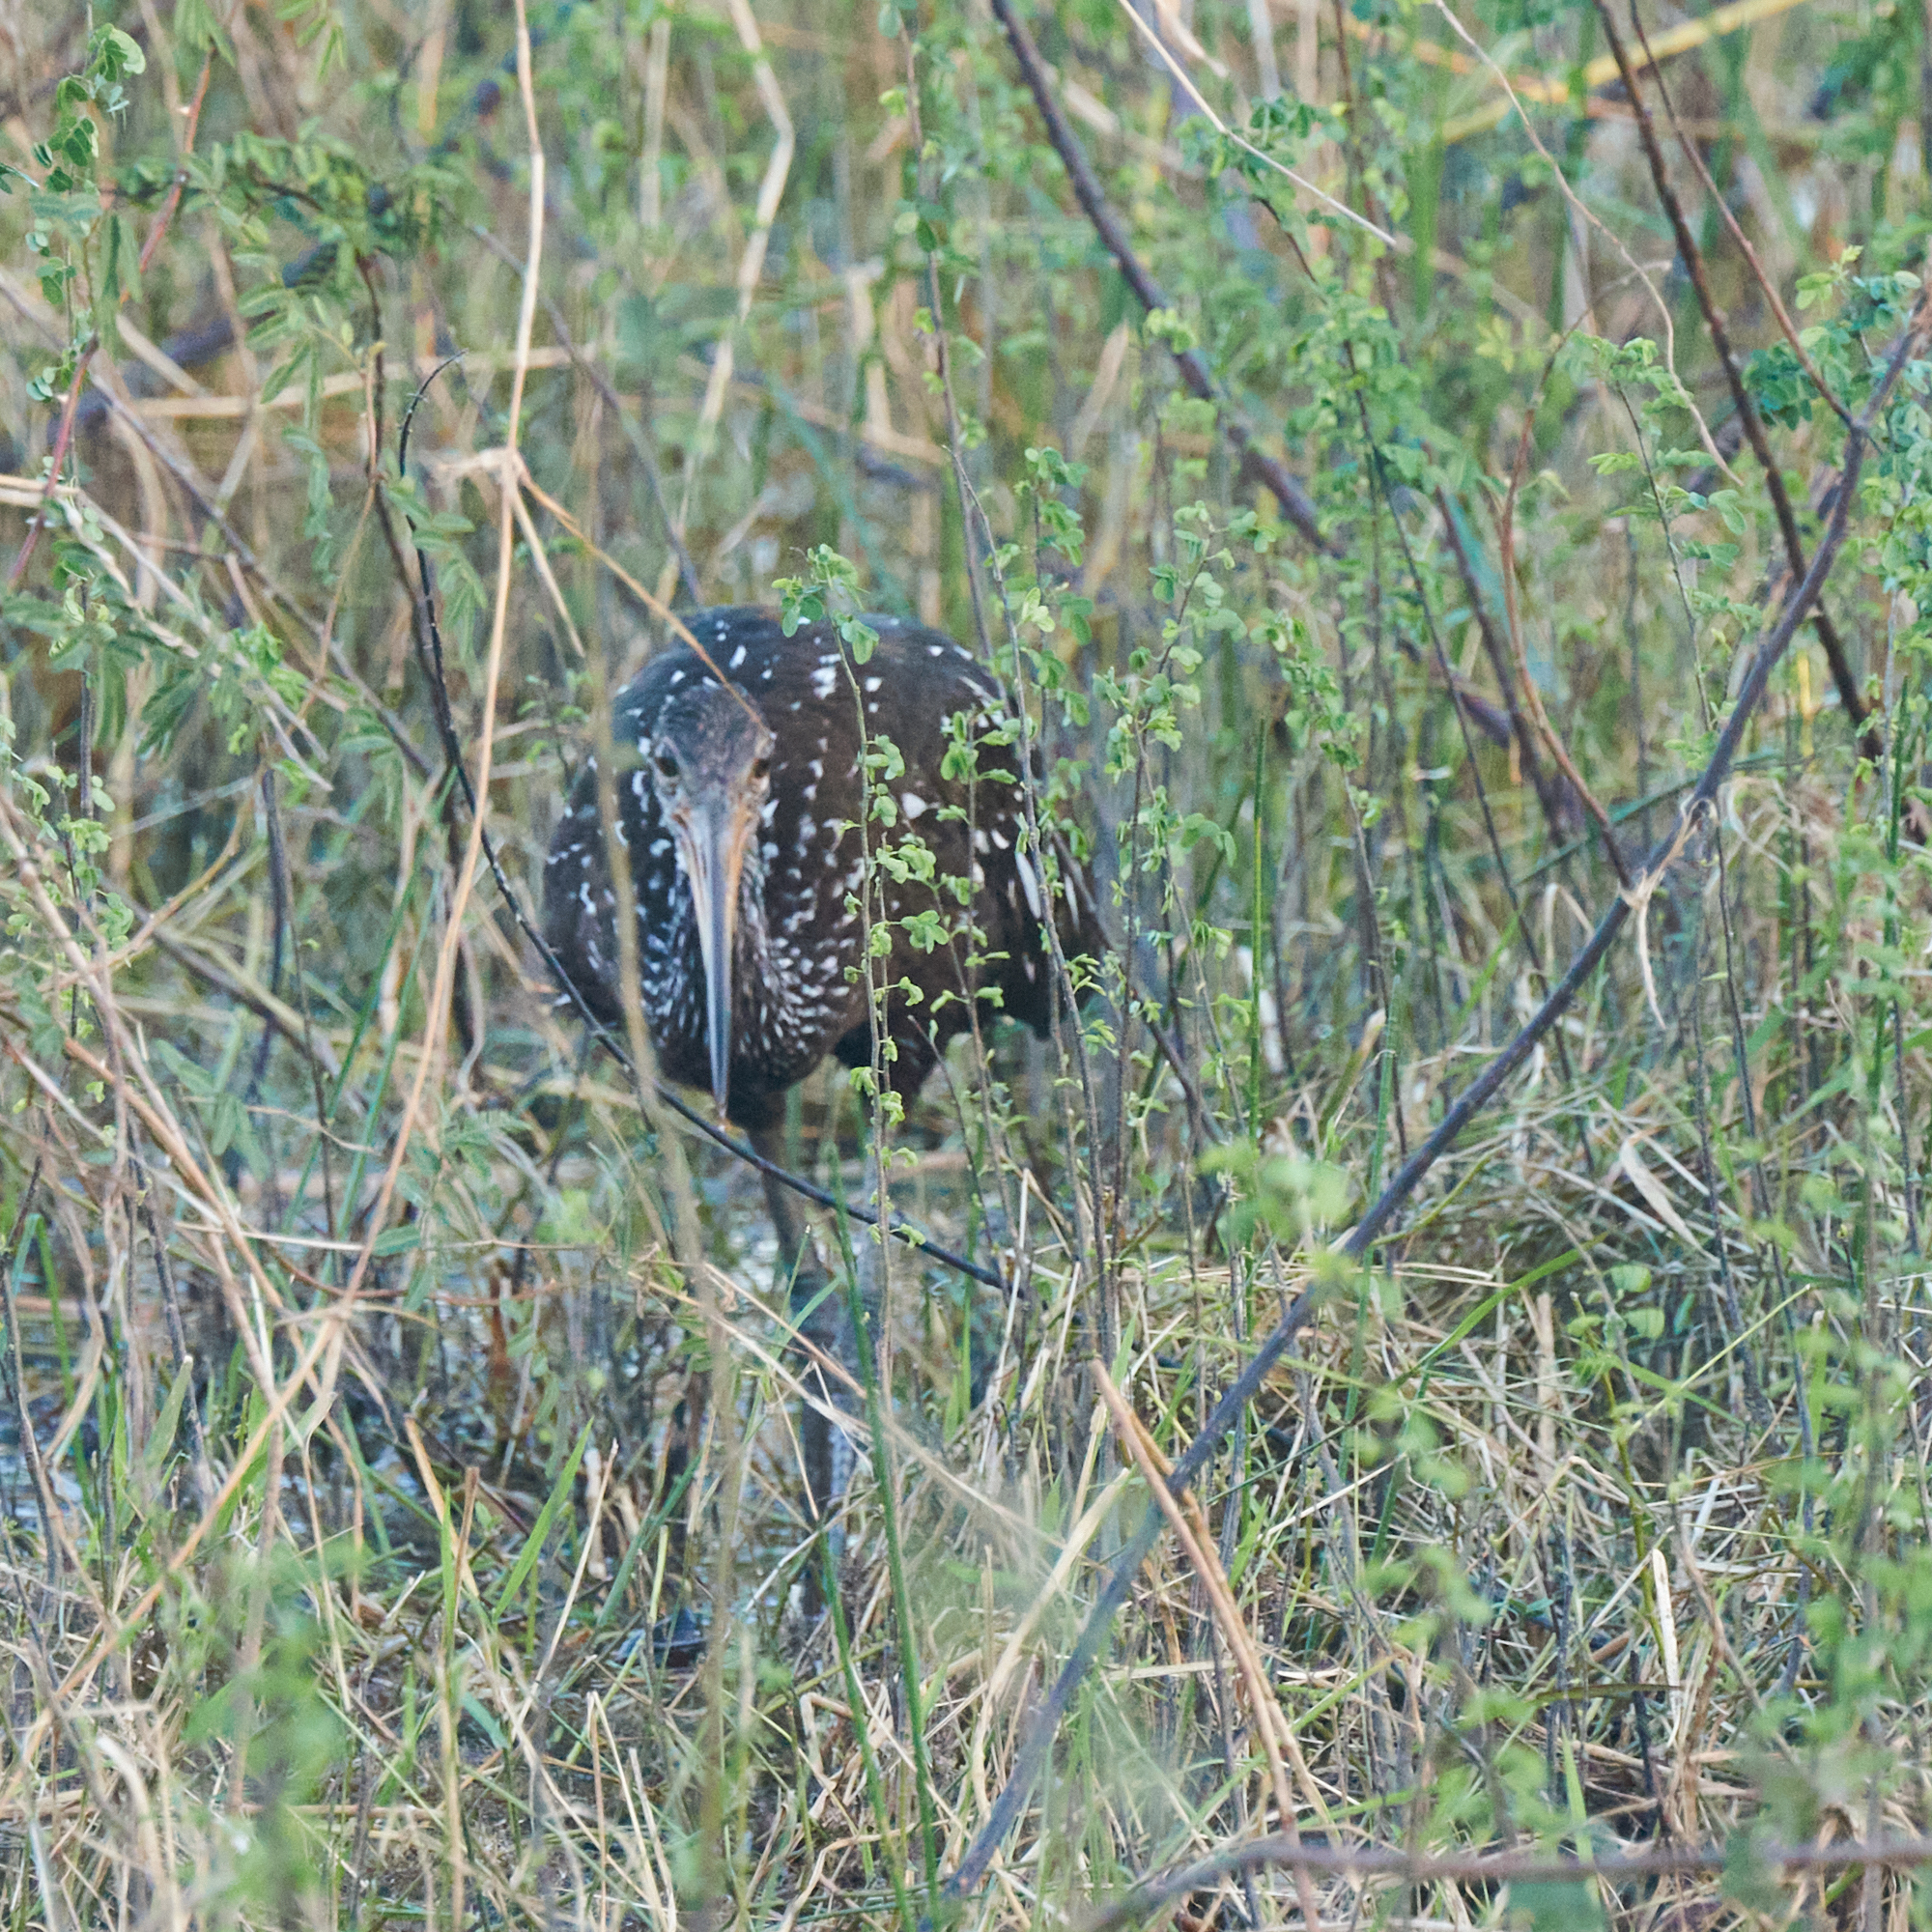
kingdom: Animalia
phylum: Chordata
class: Aves
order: Gruiformes
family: Aramidae
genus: Aramus
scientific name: Aramus guarauna
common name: Limpkin
